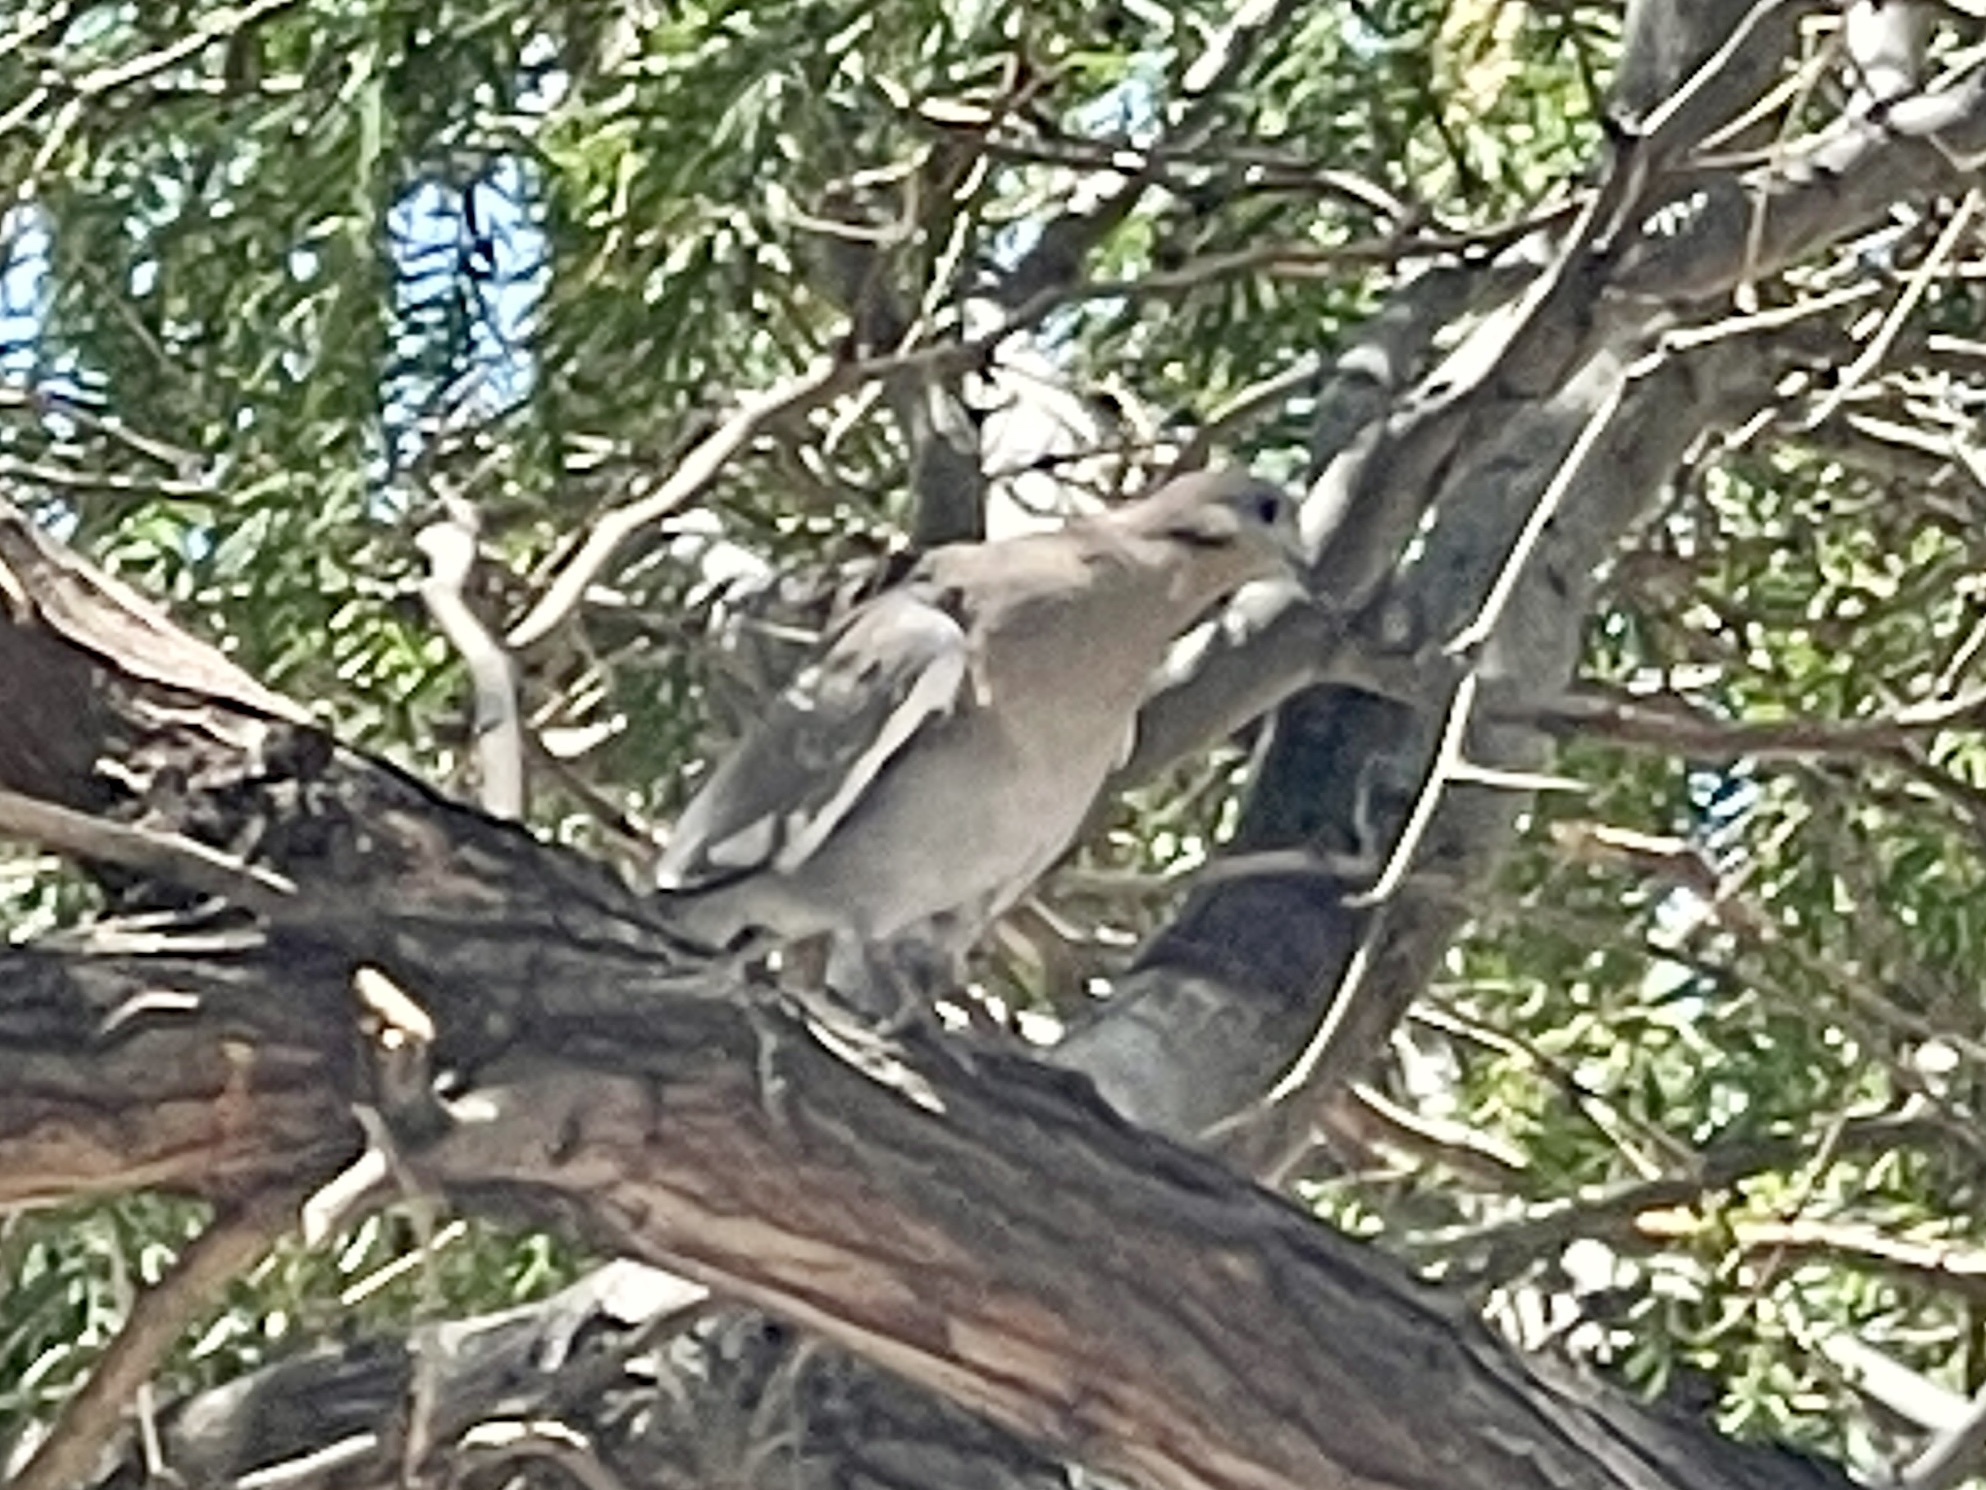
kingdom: Animalia
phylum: Chordata
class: Aves
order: Columbiformes
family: Columbidae
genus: Zenaida
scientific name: Zenaida asiatica
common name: White-winged dove
